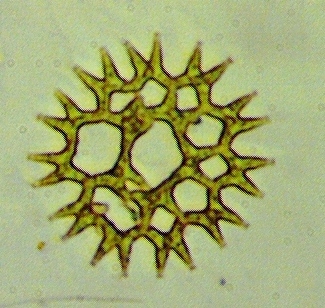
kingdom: Plantae
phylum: Chlorophyta
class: Chlorophyceae
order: Sphaeropleales
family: Hydrodictyaceae
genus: Lacunastrum
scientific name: Lacunastrum gracillimum
